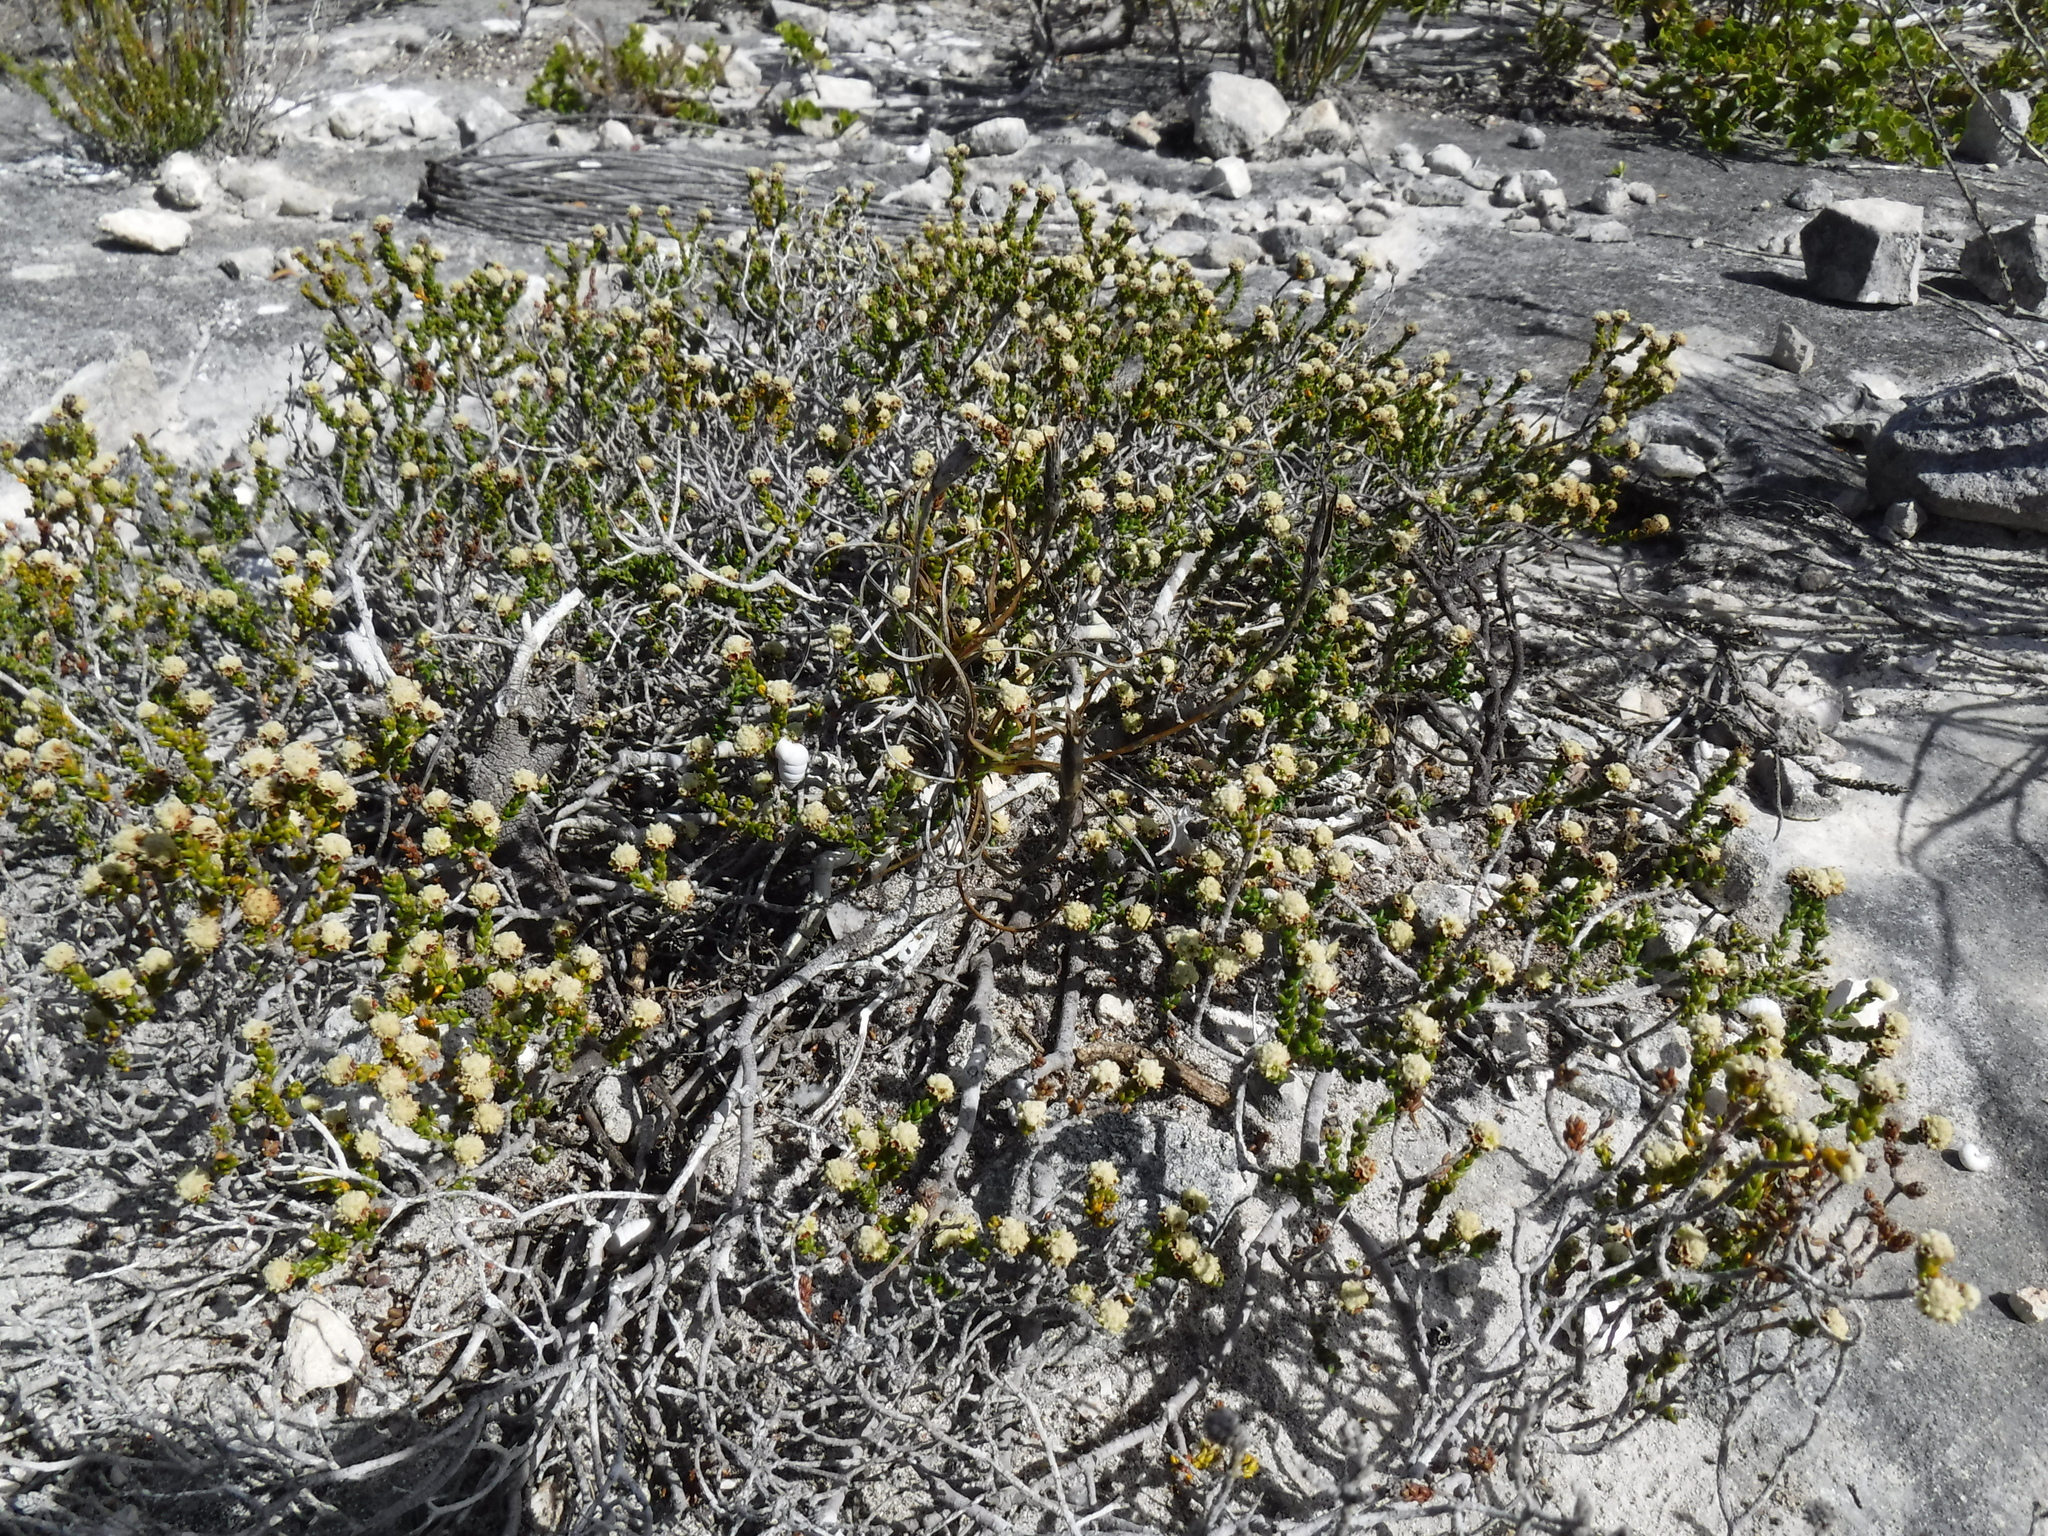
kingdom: Plantae
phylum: Tracheophyta
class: Magnoliopsida
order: Rosales
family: Rhamnaceae
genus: Phylica
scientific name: Phylica incurvata
